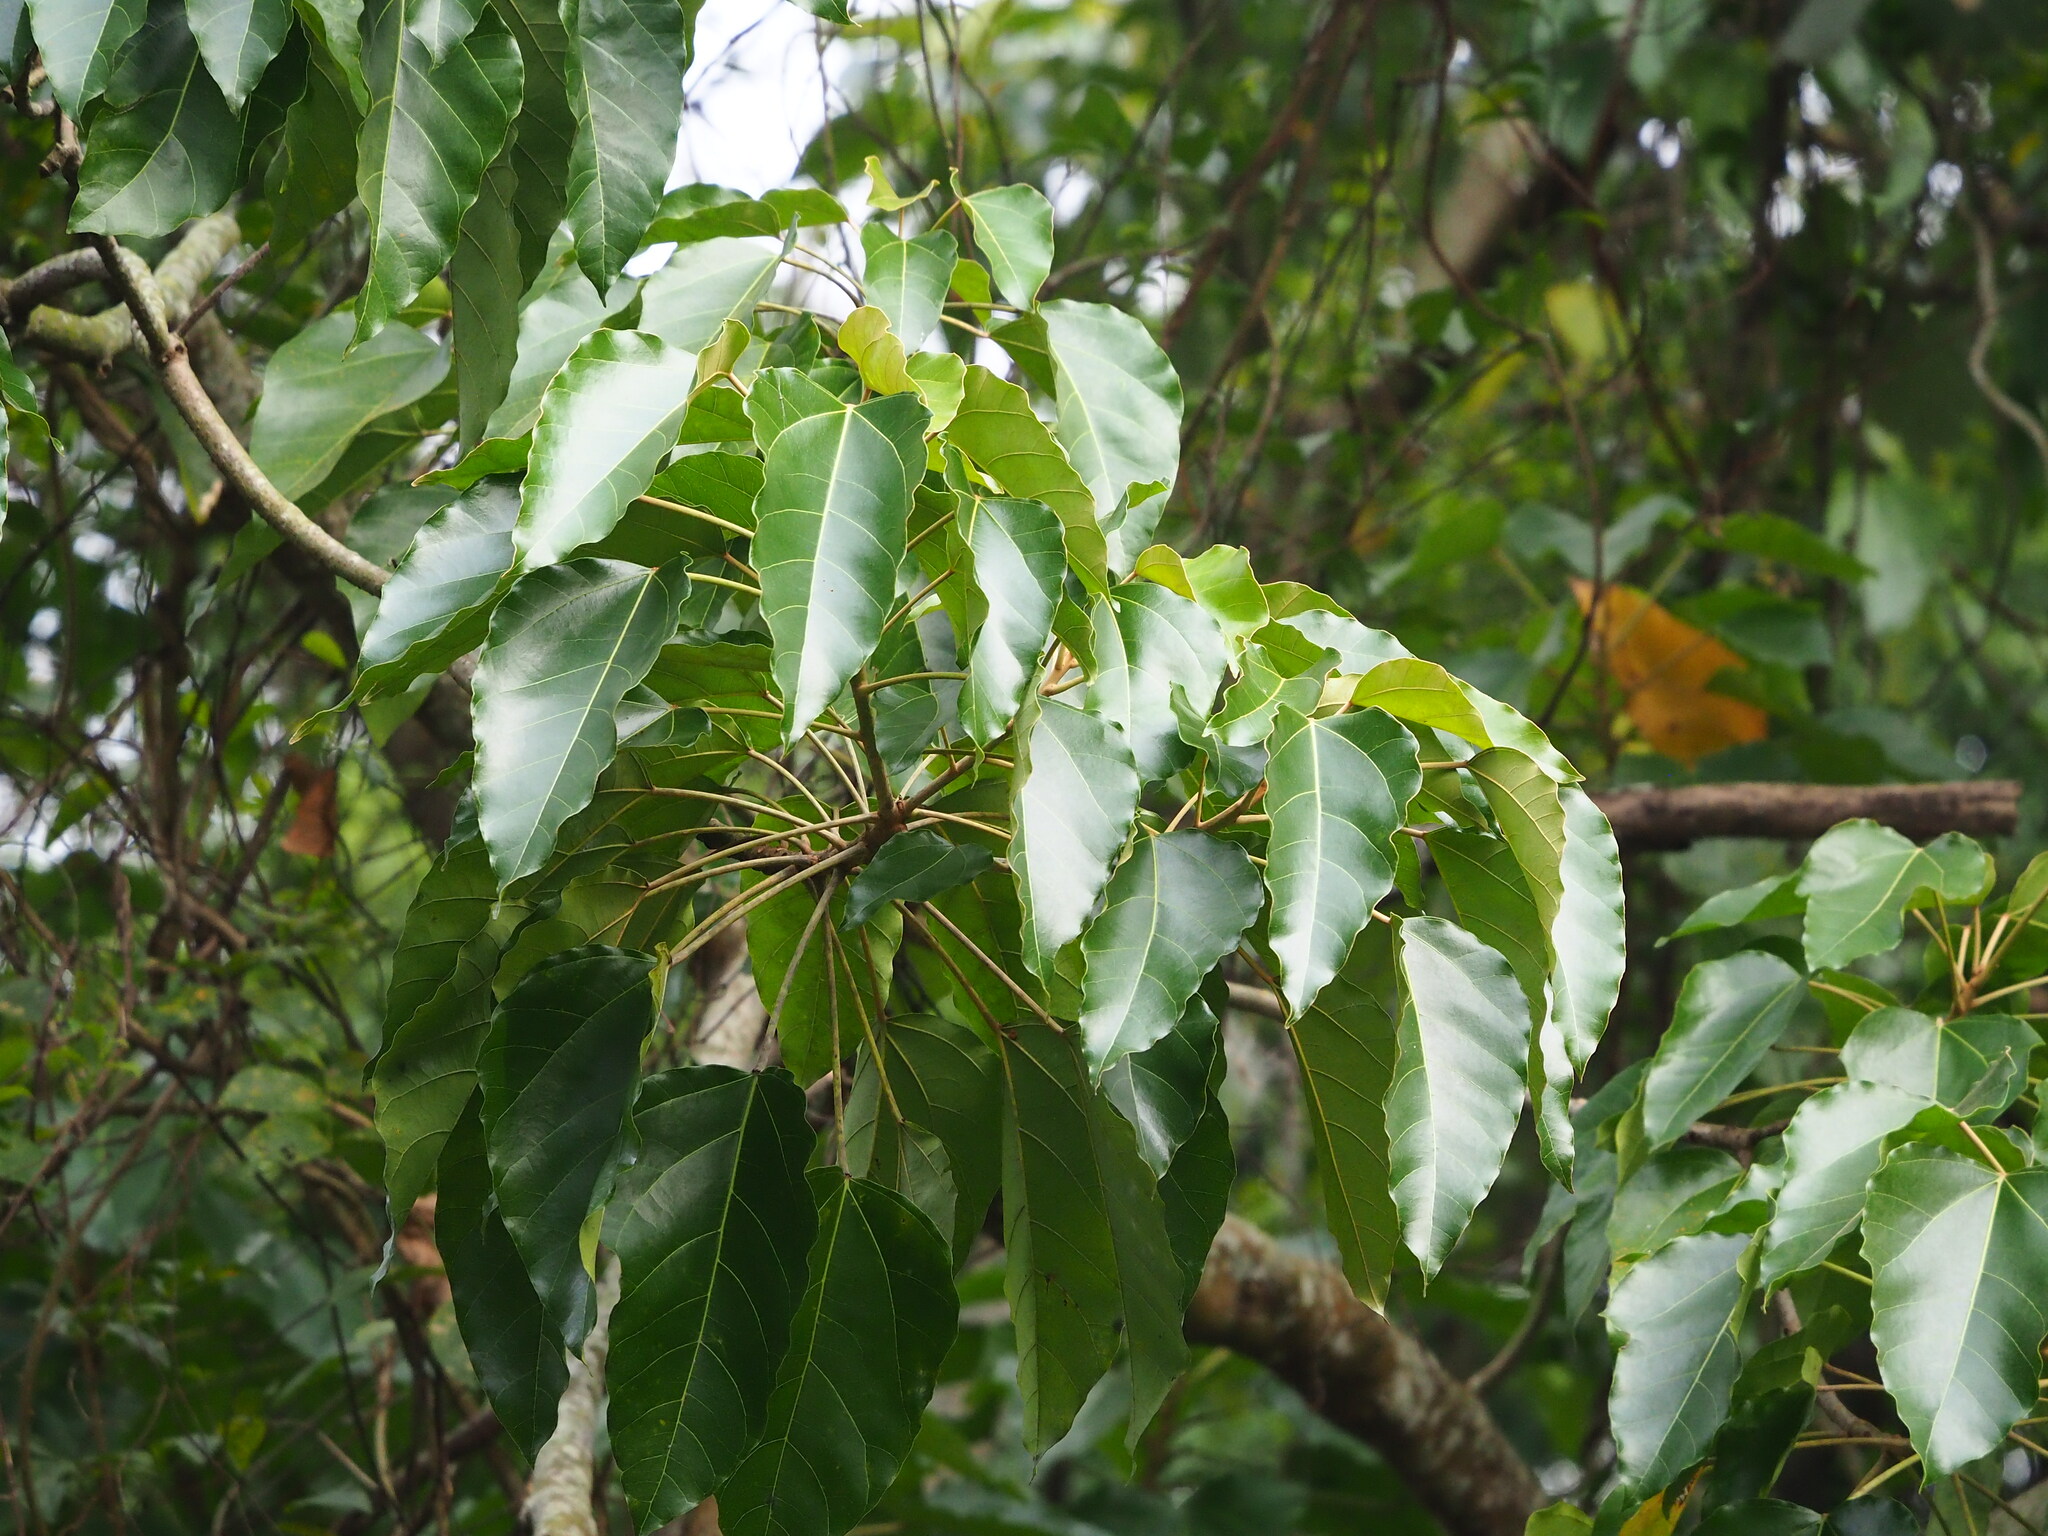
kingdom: Plantae
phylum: Tracheophyta
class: Magnoliopsida
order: Malpighiales
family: Euphorbiaceae
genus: Aleurites
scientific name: Aleurites moluccanus
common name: Candlenut tree
